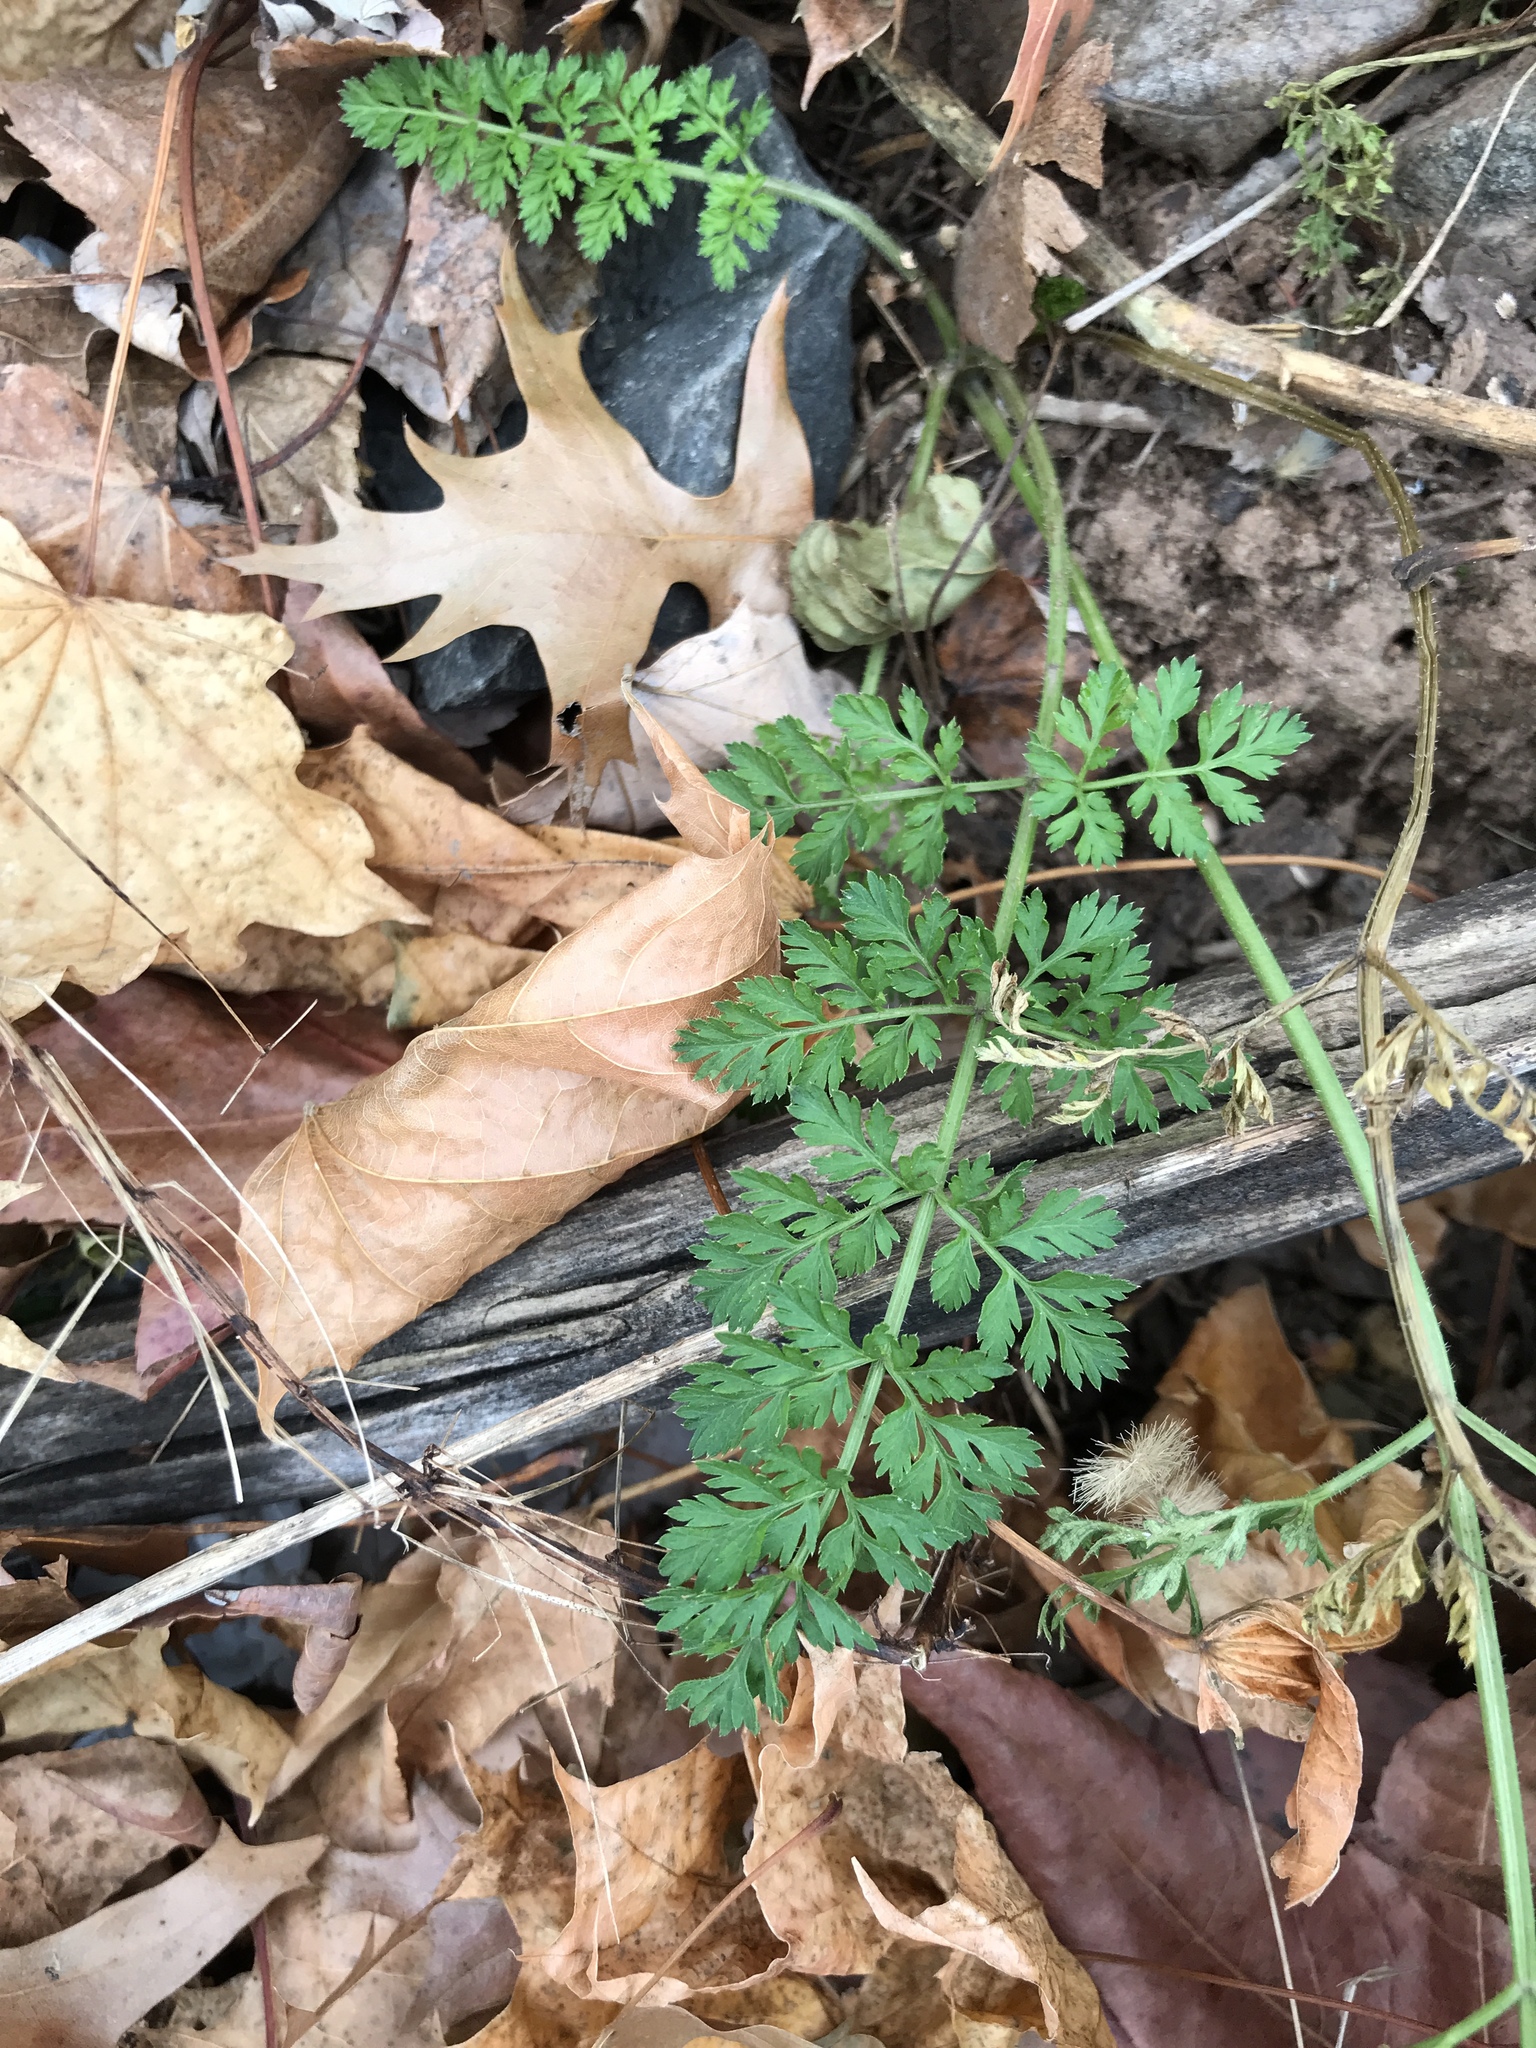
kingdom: Plantae
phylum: Tracheophyta
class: Magnoliopsida
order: Apiales
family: Apiaceae
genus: Daucus
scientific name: Daucus carota
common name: Wild carrot
